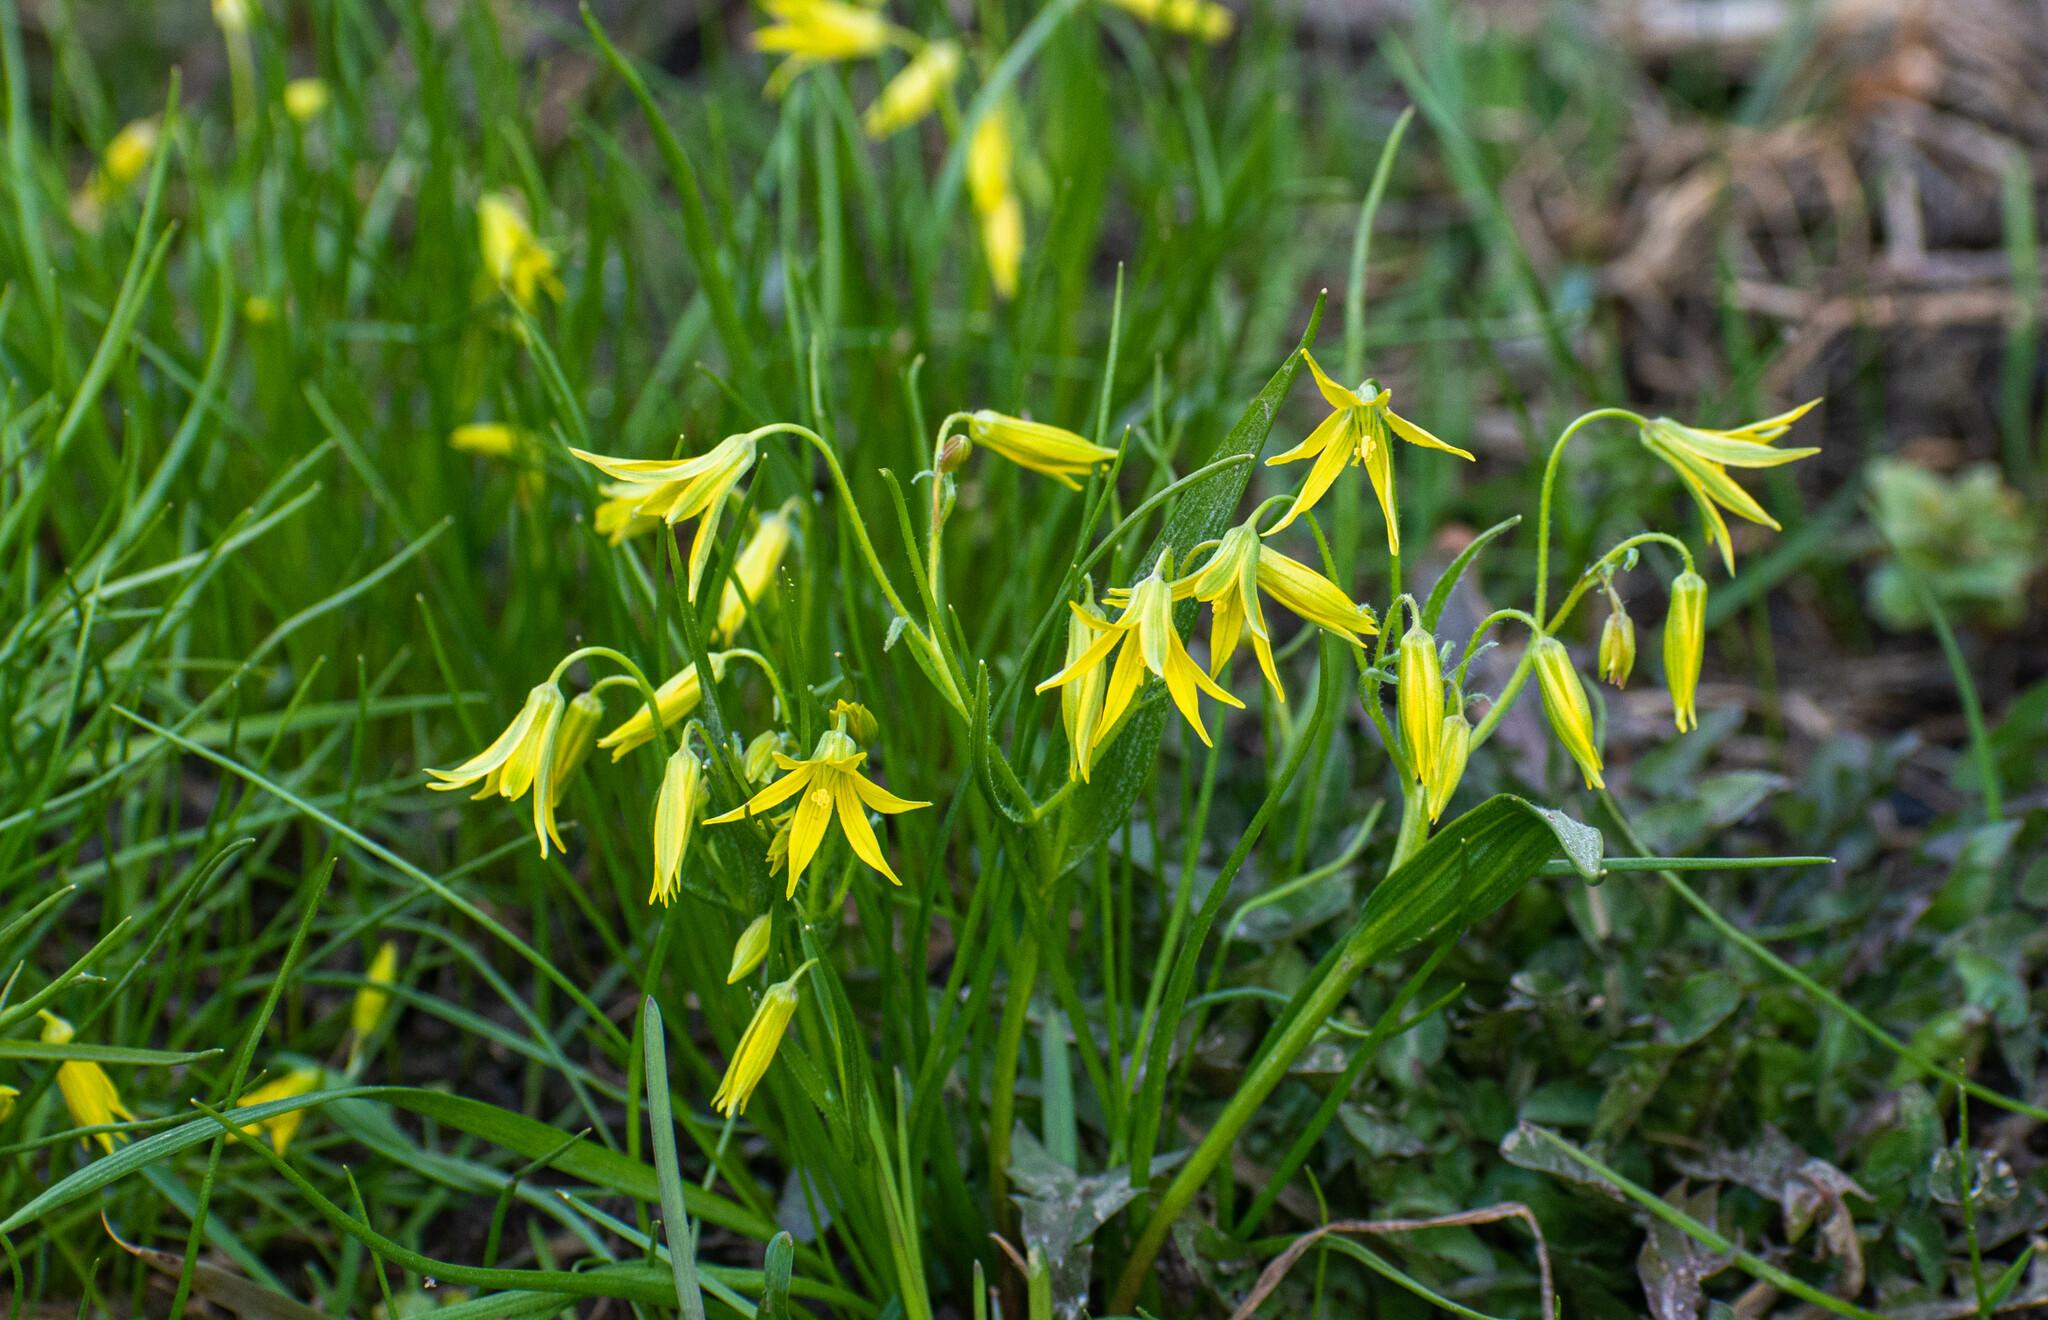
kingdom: Plantae
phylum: Tracheophyta
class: Liliopsida
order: Liliales
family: Liliaceae
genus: Gagea
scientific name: Gagea minima
